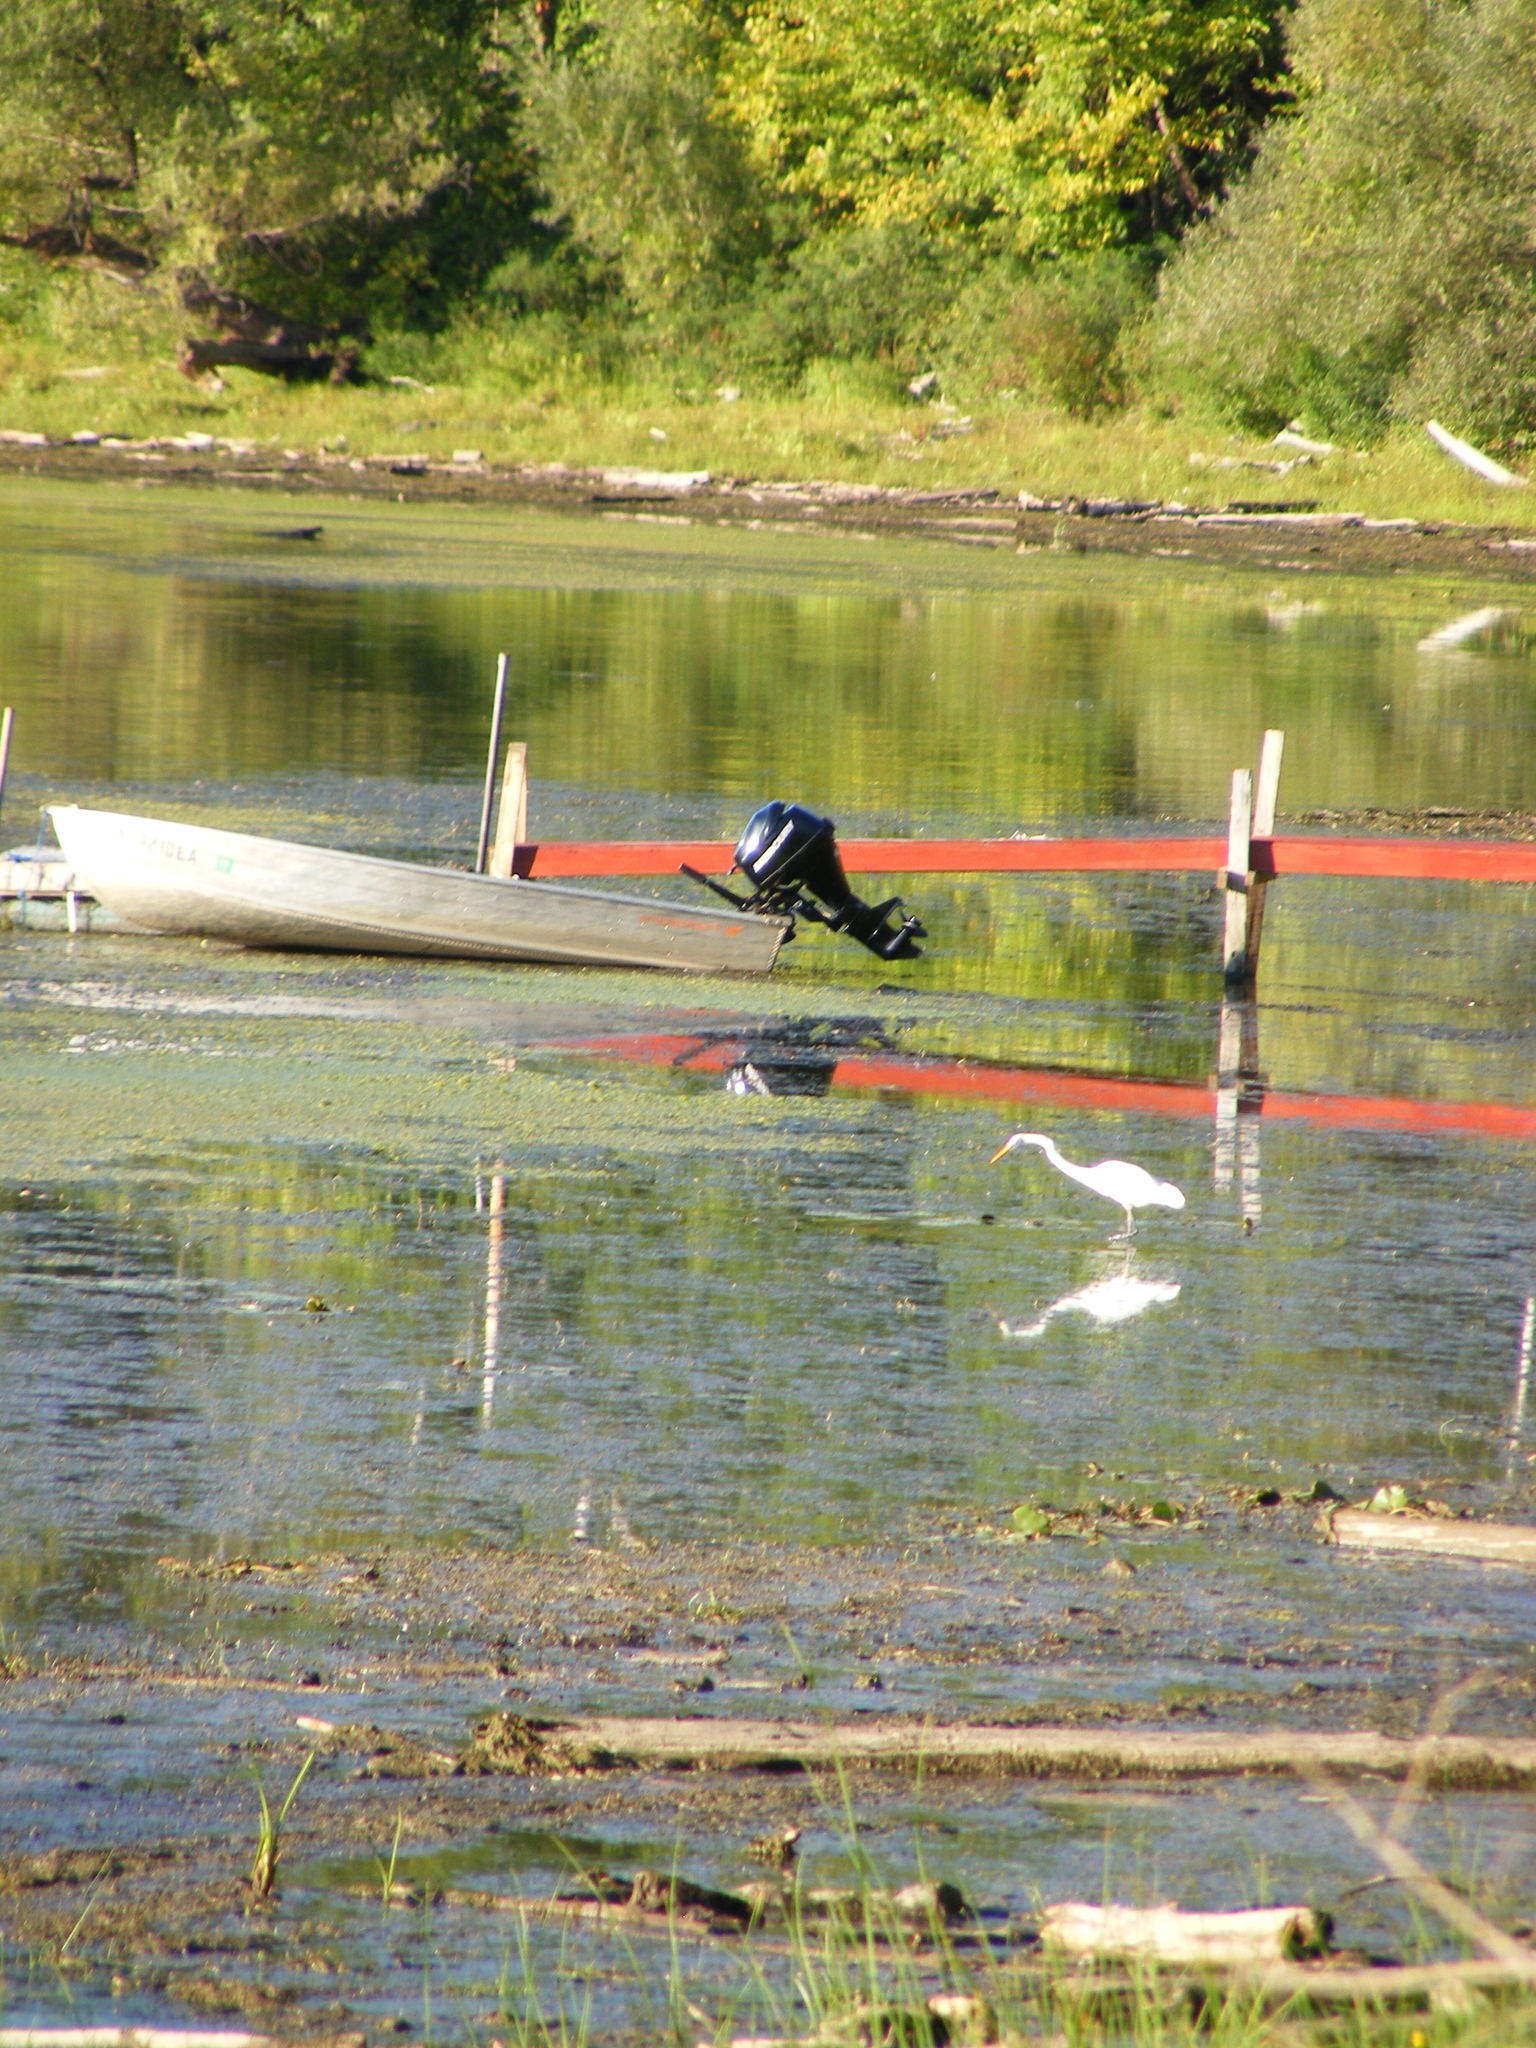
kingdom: Animalia
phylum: Chordata
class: Aves
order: Pelecaniformes
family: Ardeidae
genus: Ardea
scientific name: Ardea alba
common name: Great egret
